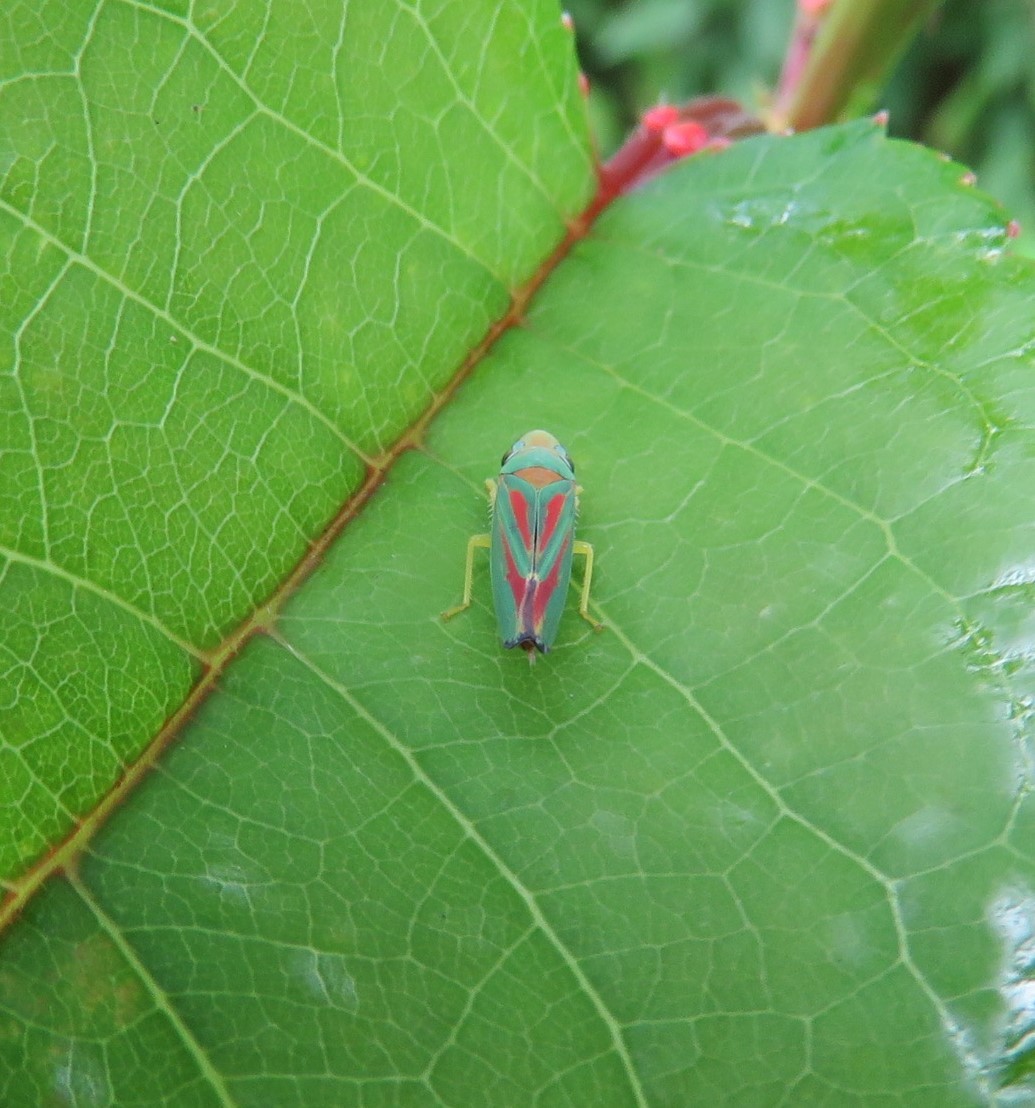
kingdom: Animalia
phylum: Arthropoda
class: Insecta
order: Hemiptera
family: Cicadellidae
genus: Graphocephala
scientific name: Graphocephala coccinea
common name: Candy-striped leafhopper
